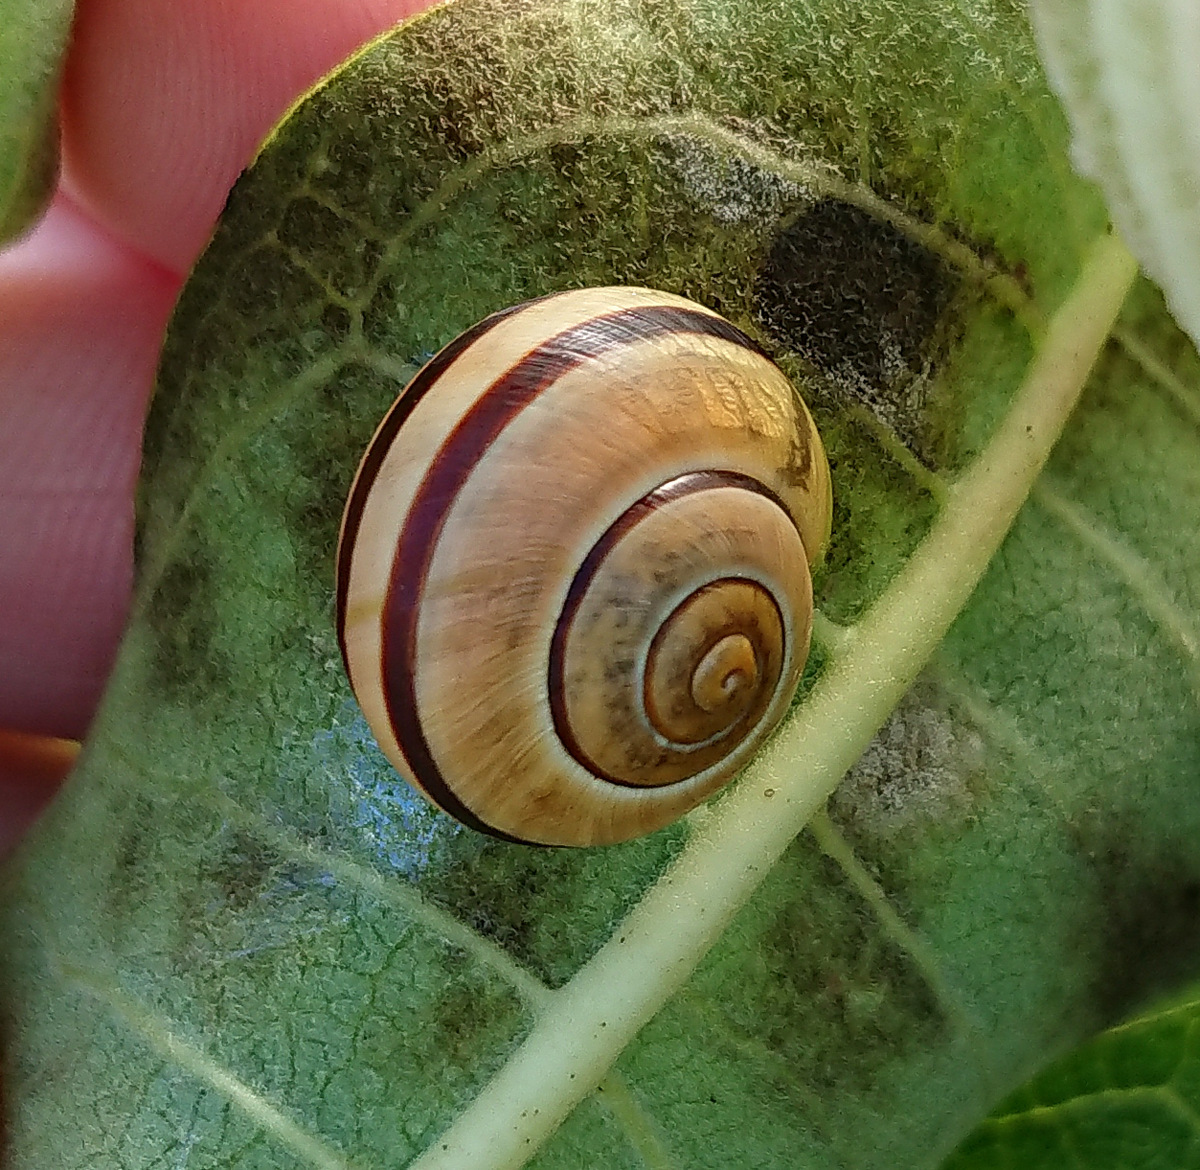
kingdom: Animalia
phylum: Mollusca
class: Gastropoda
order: Stylommatophora
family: Helicidae
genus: Cepaea
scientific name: Cepaea nemoralis
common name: Grovesnail
